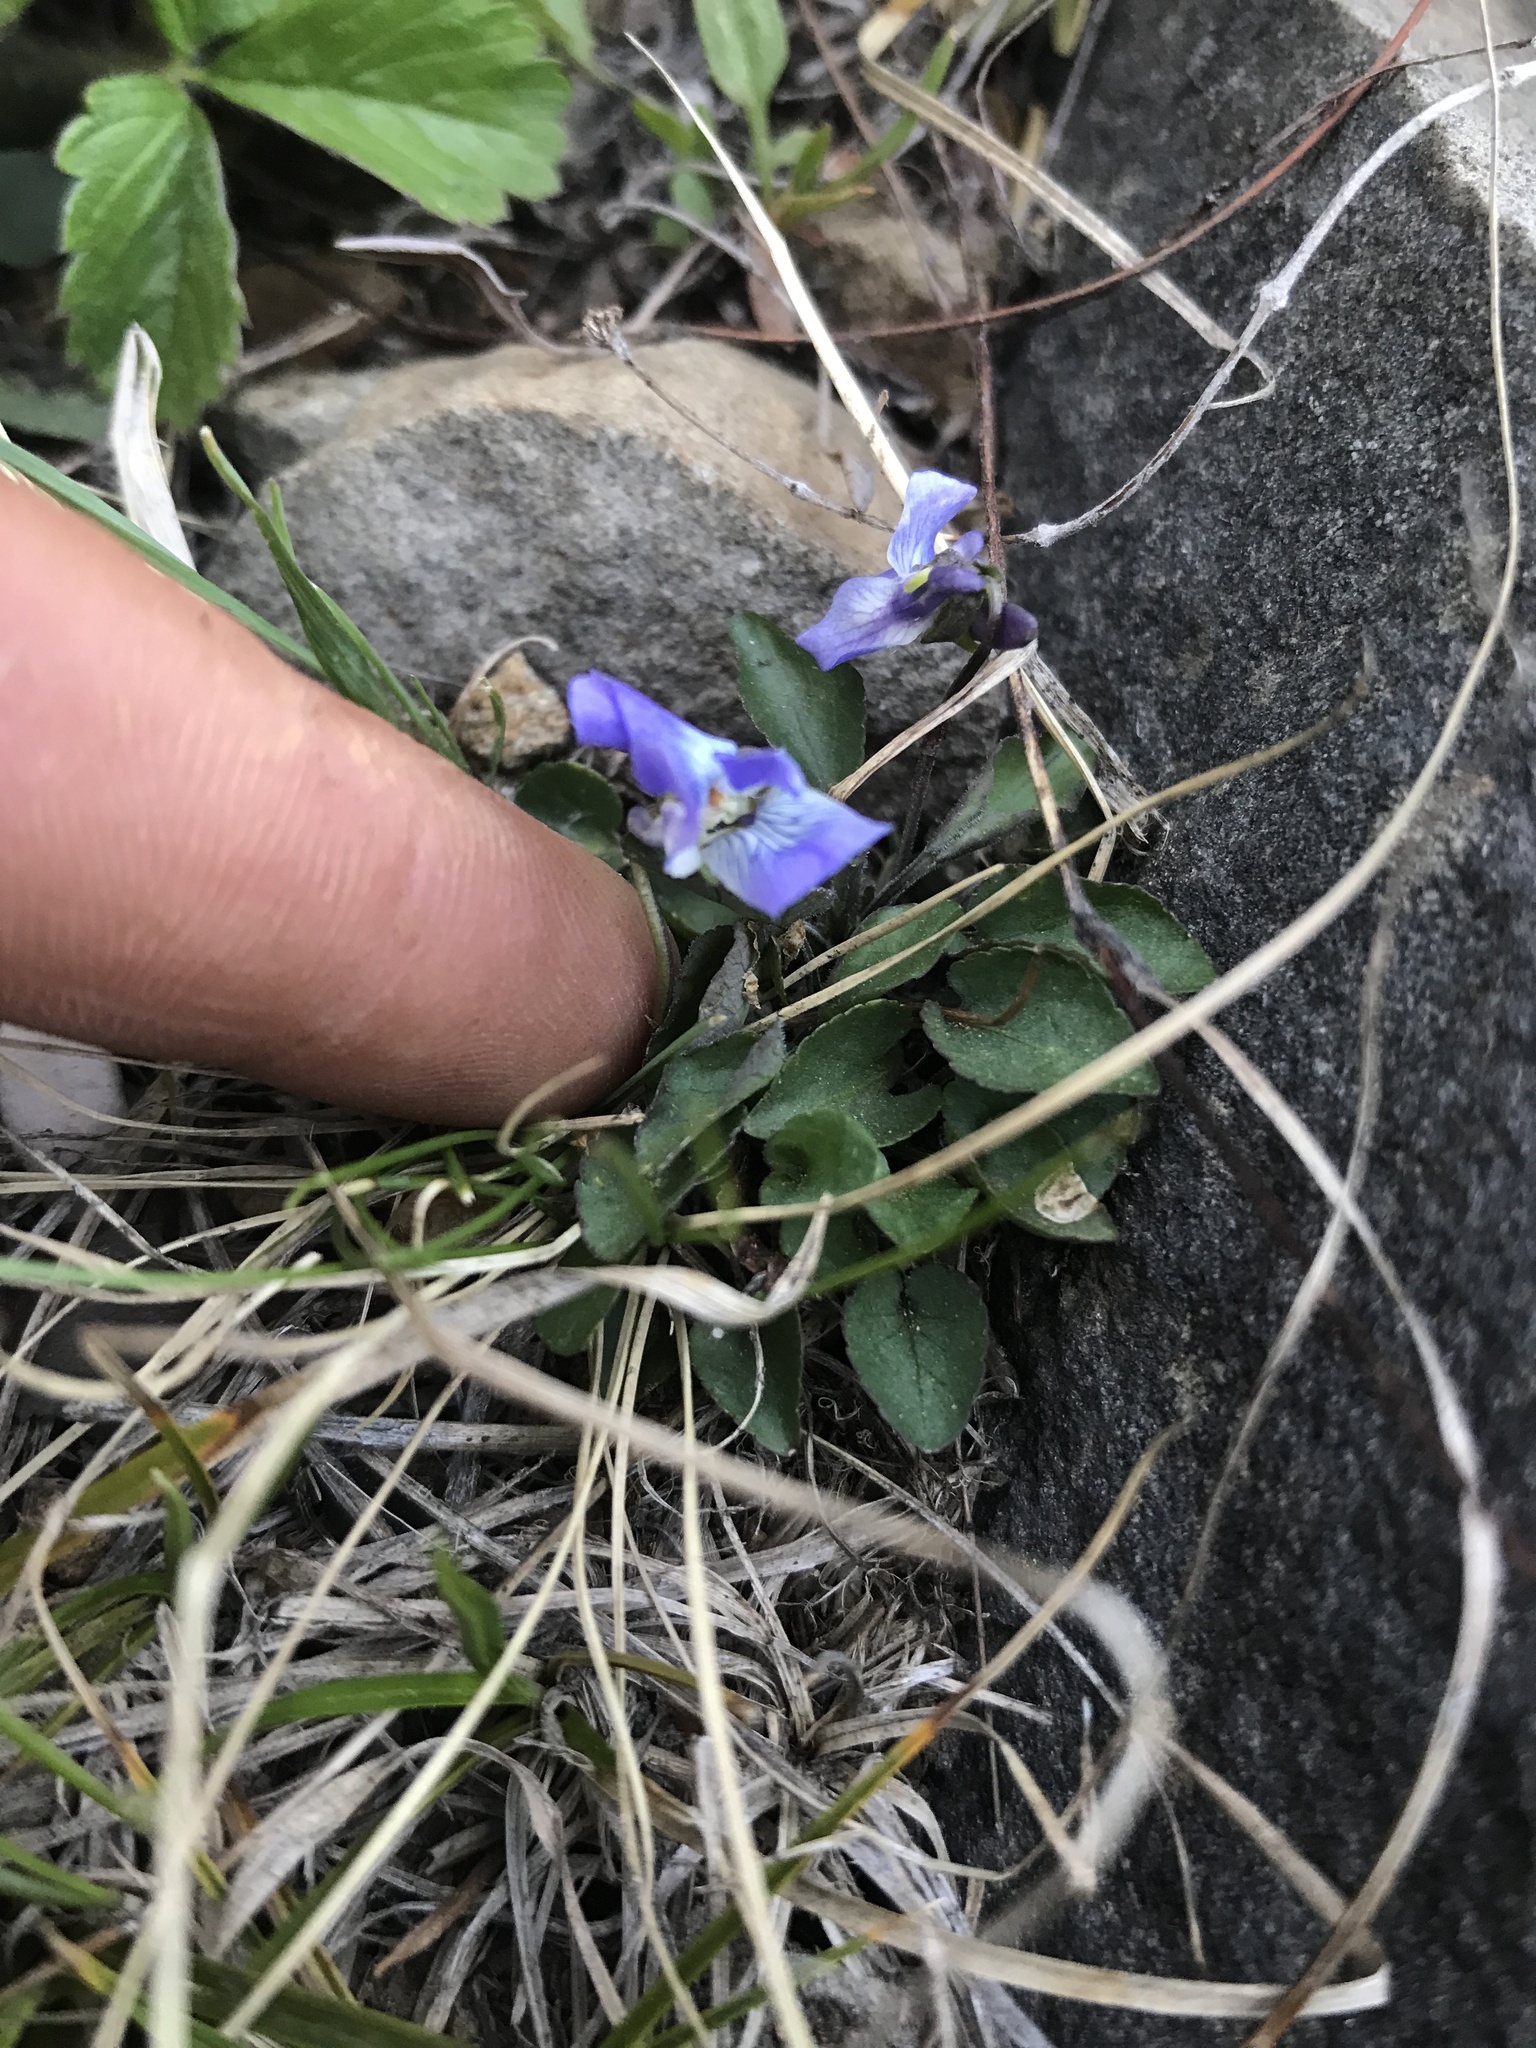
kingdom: Plantae
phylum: Tracheophyta
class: Magnoliopsida
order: Malpighiales
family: Violaceae
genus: Viola
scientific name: Viola adunca
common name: Sand violet
